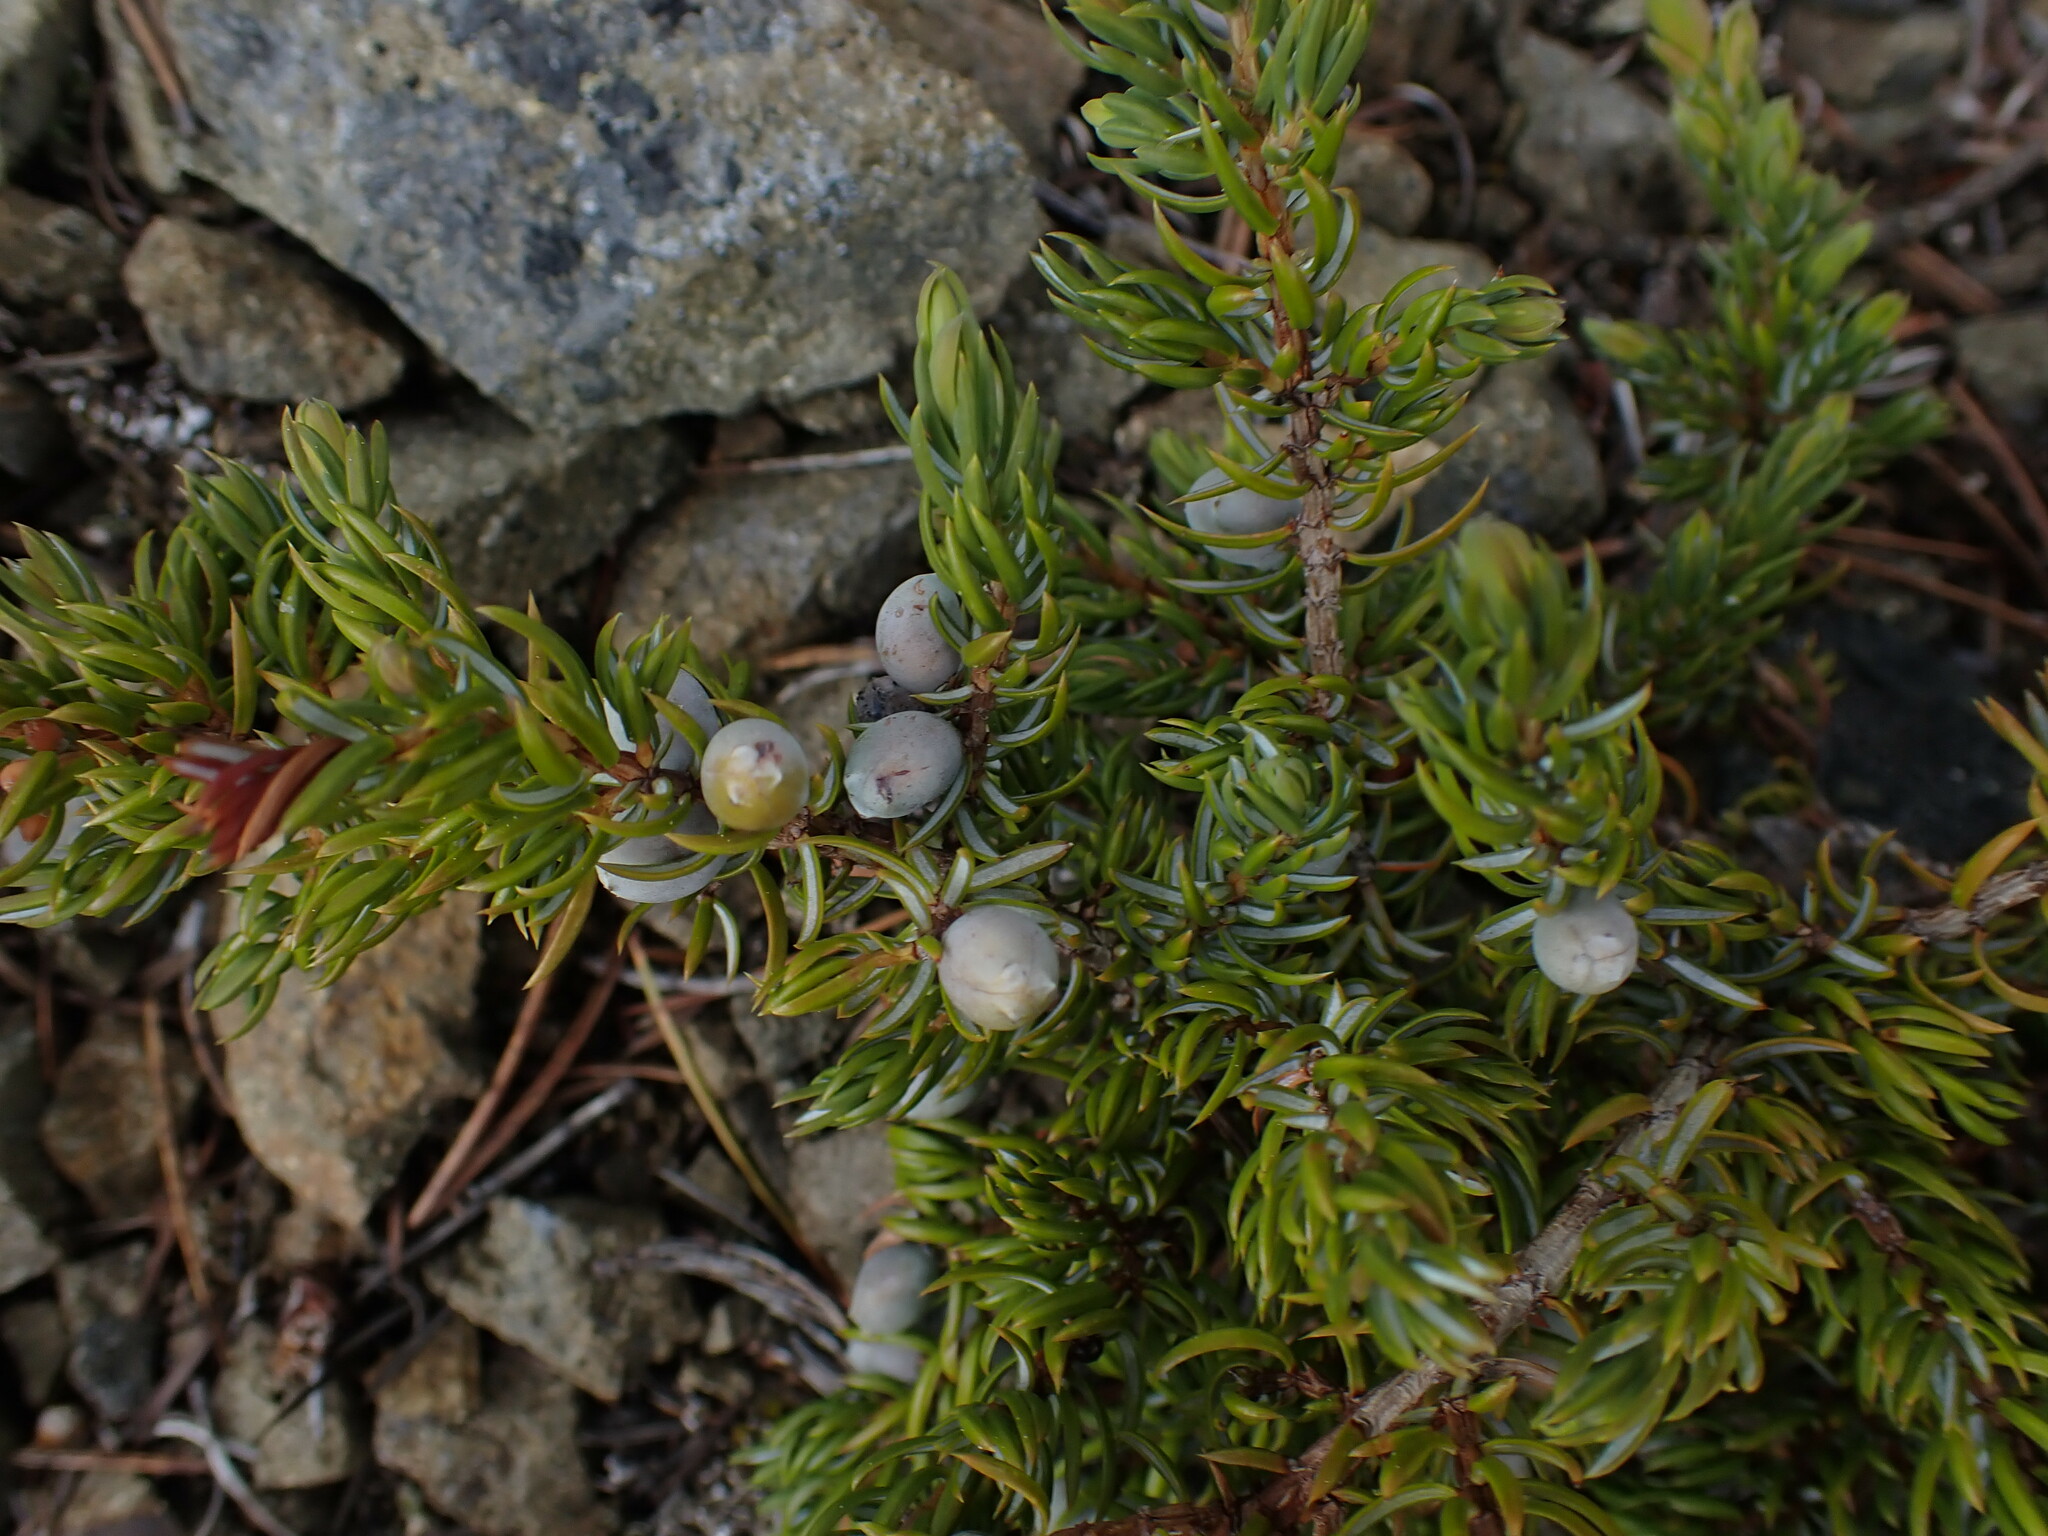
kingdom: Plantae
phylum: Tracheophyta
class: Pinopsida
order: Pinales
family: Cupressaceae
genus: Juniperus
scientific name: Juniperus communis
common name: Common juniper
